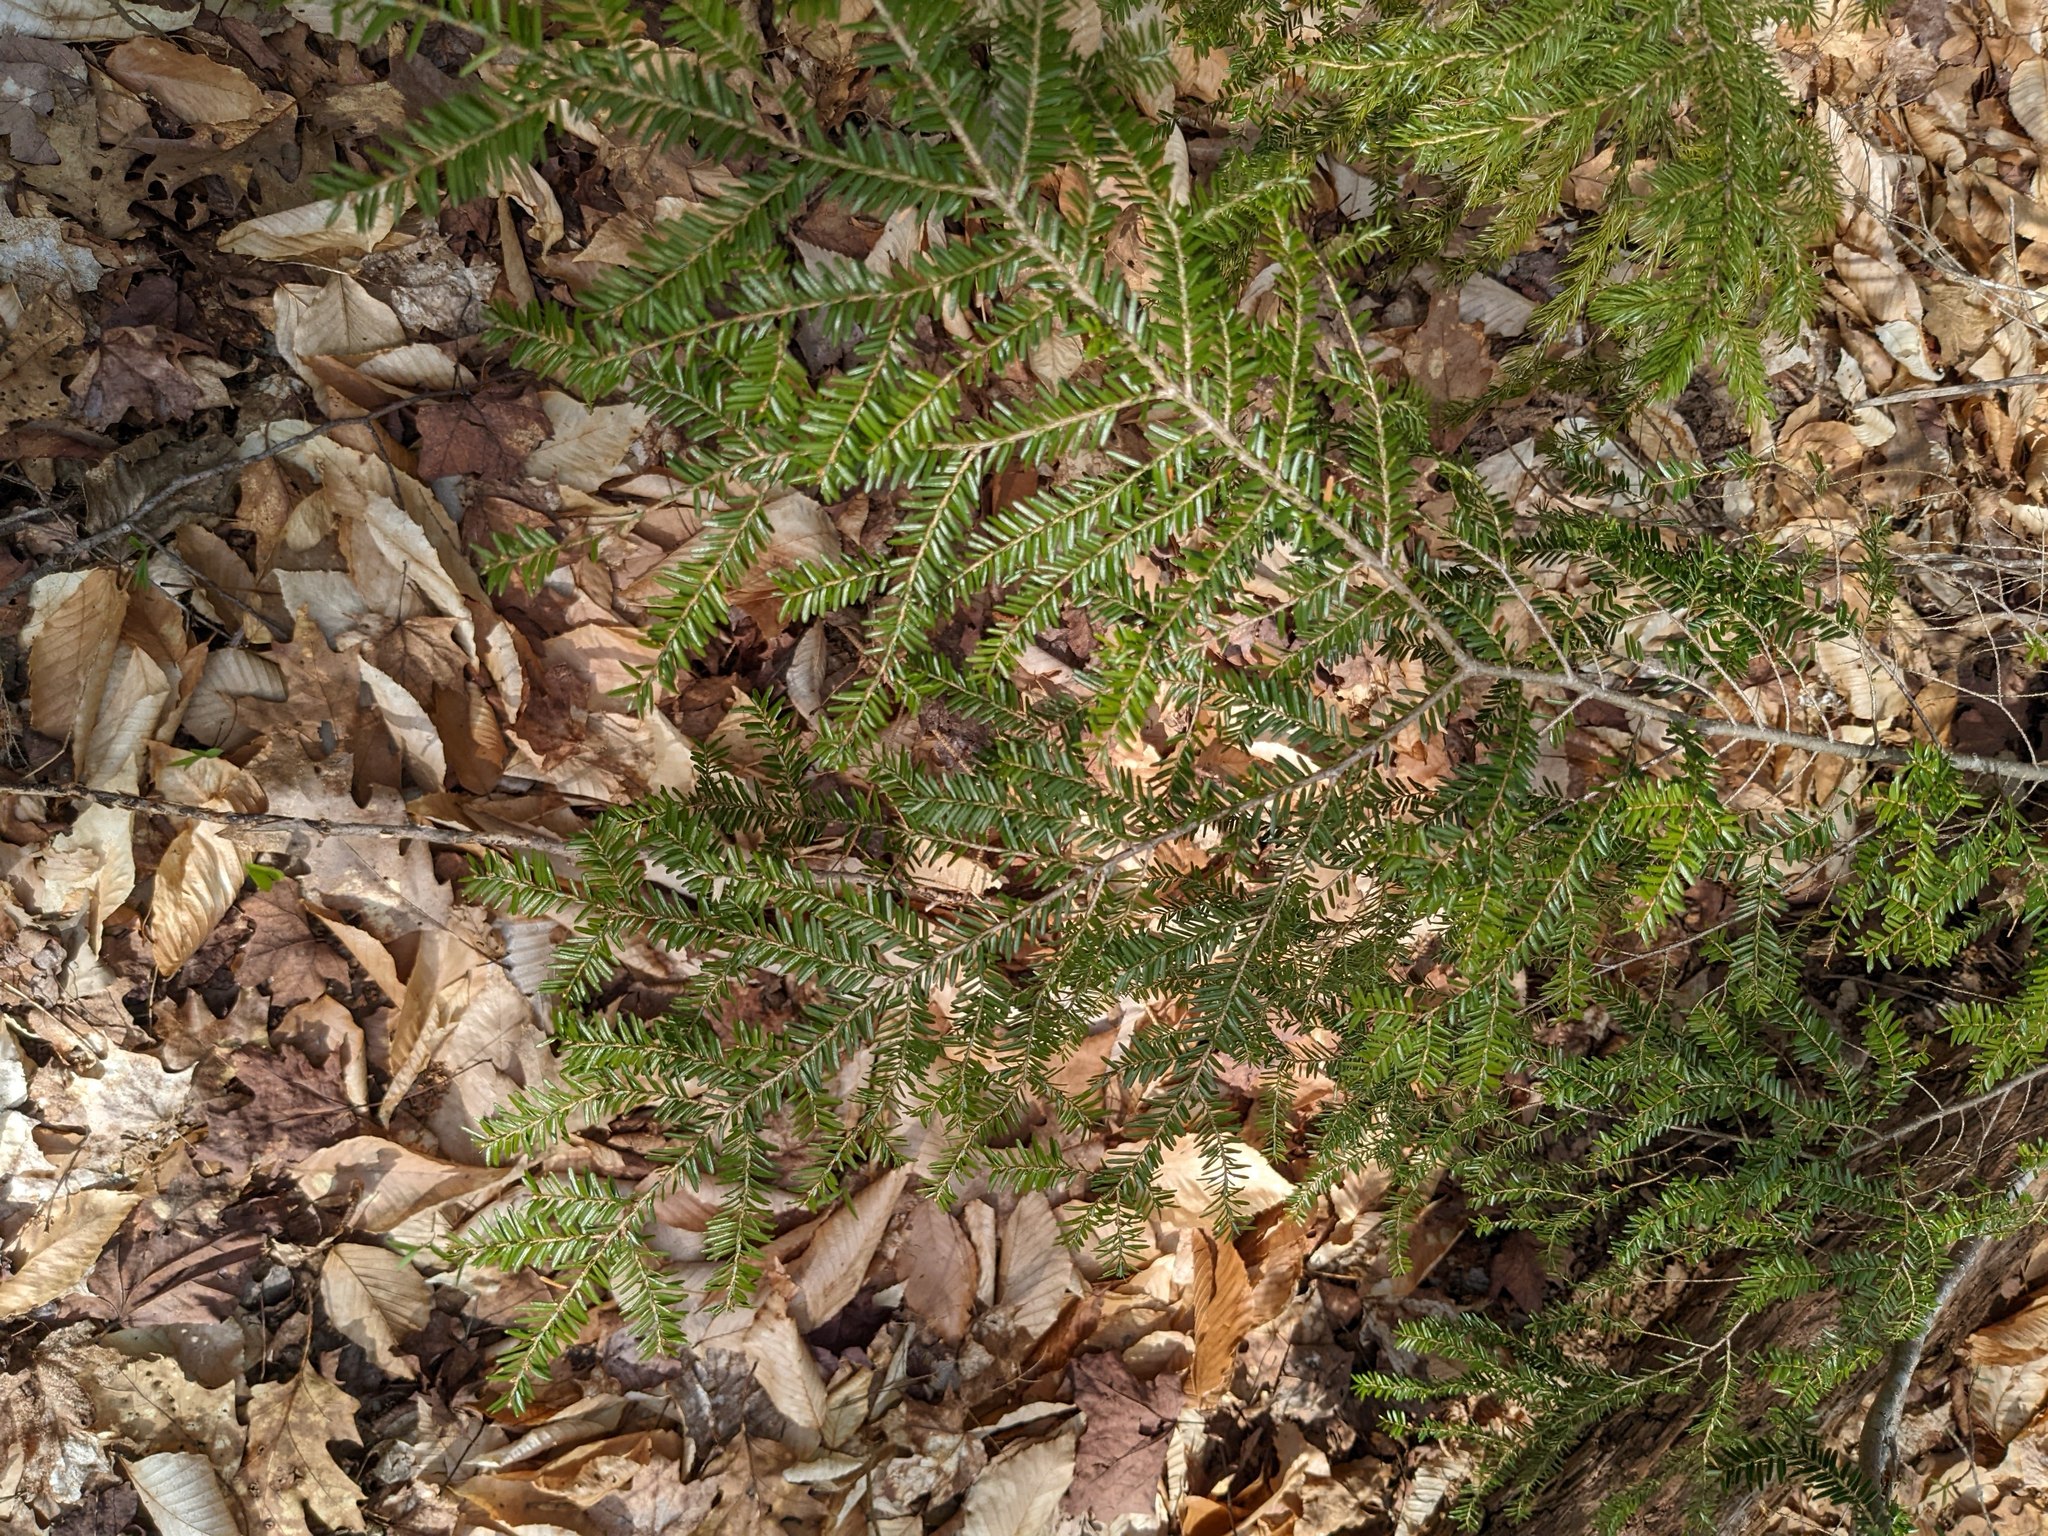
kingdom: Plantae
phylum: Tracheophyta
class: Pinopsida
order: Pinales
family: Pinaceae
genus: Tsuga
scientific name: Tsuga canadensis
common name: Eastern hemlock
